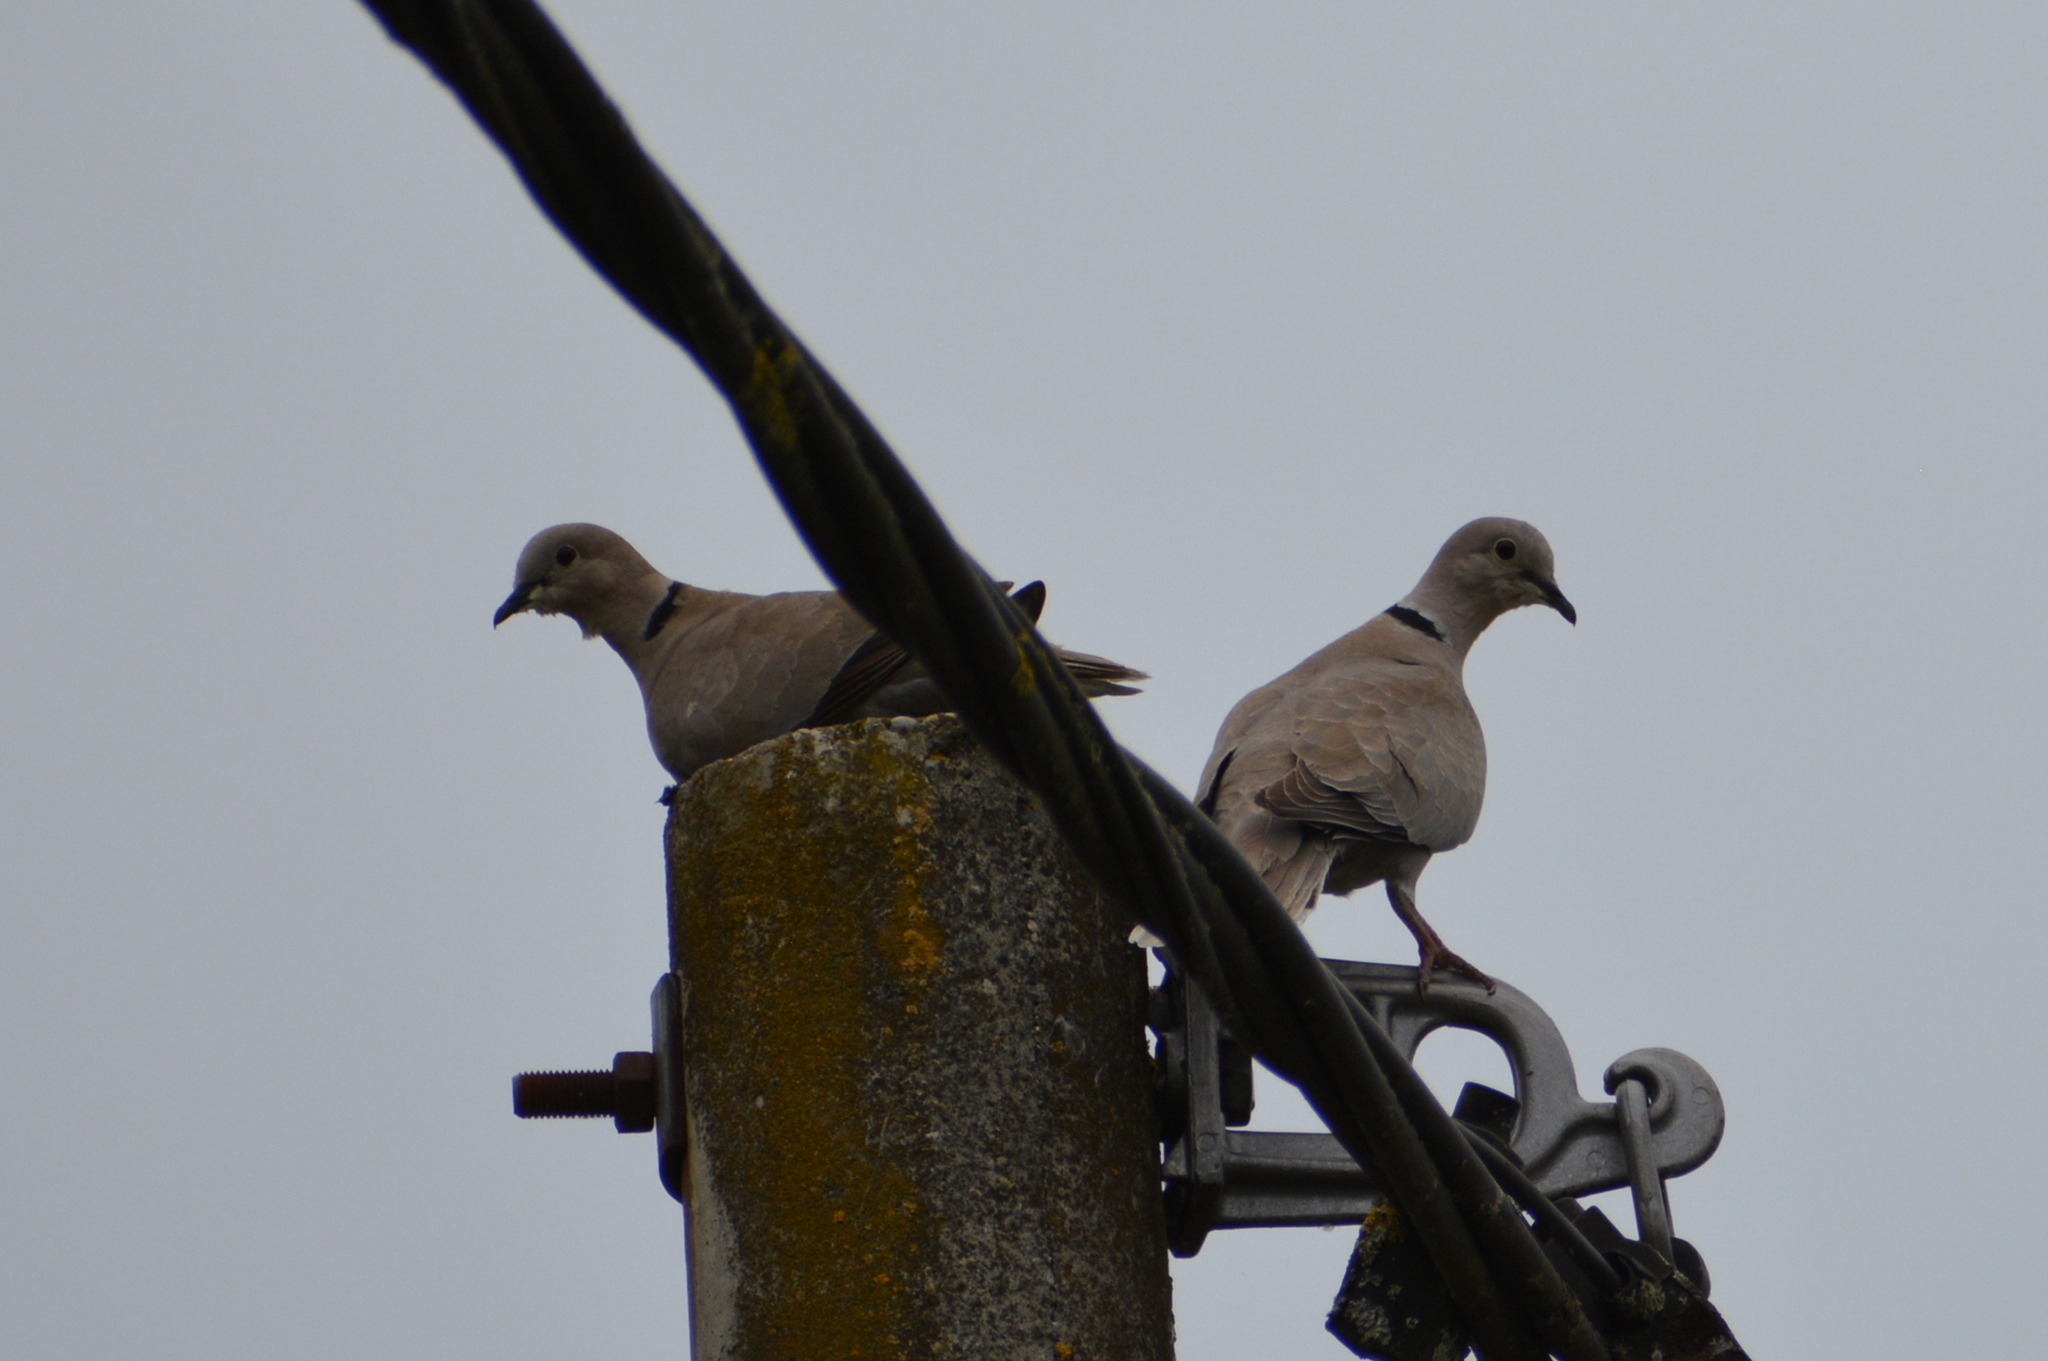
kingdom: Animalia
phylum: Chordata
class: Aves
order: Columbiformes
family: Columbidae
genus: Streptopelia
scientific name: Streptopelia decaocto
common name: Eurasian collared dove
